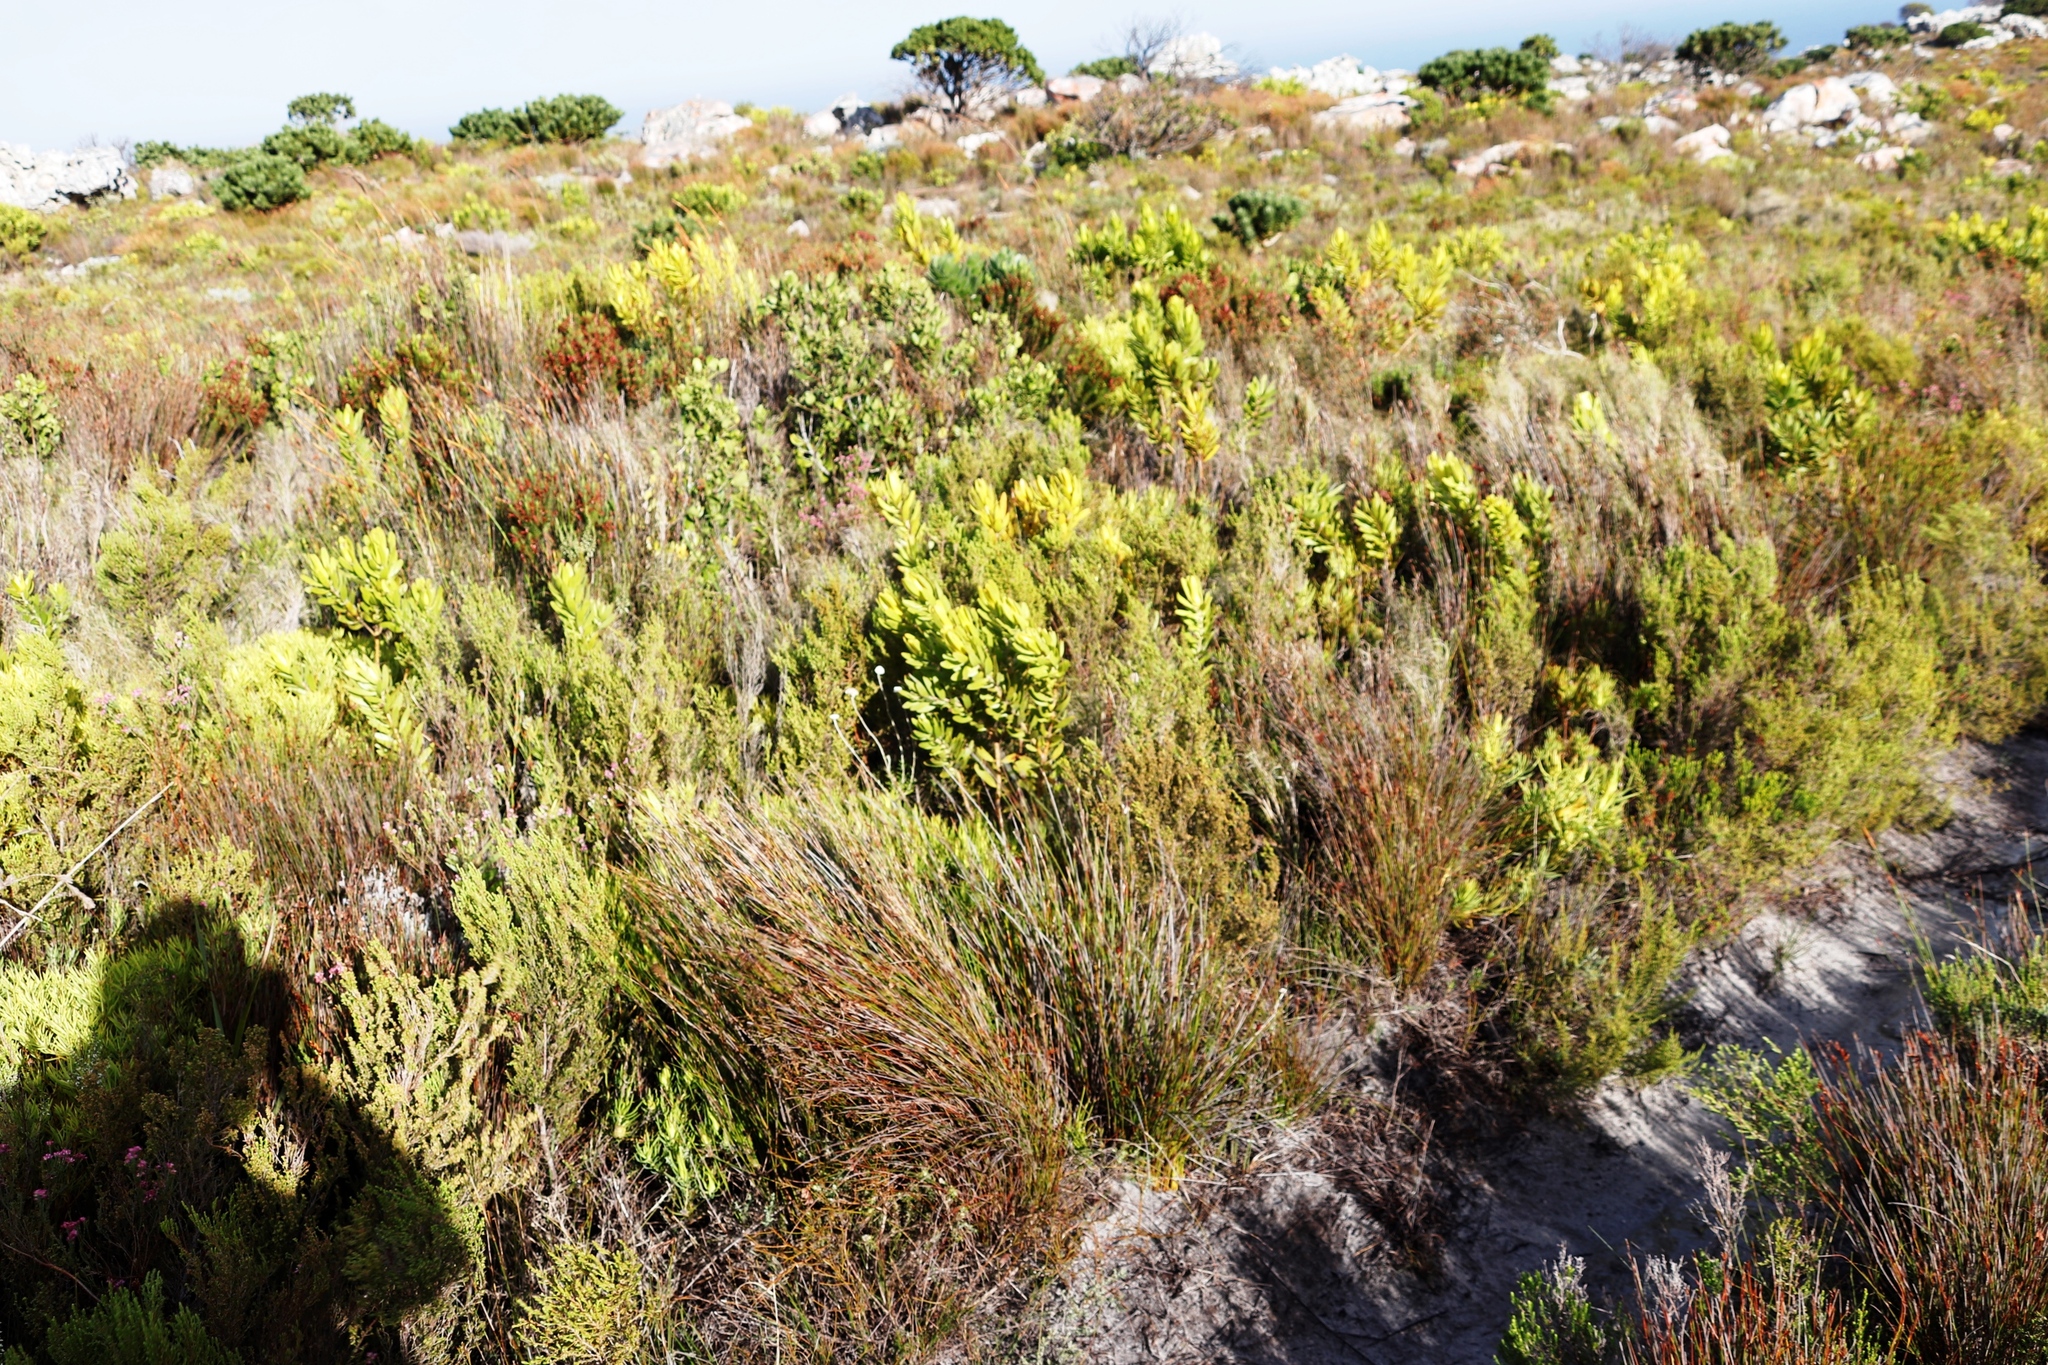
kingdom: Plantae
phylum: Tracheophyta
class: Magnoliopsida
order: Proteales
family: Proteaceae
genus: Leucadendron
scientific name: Leucadendron laureolum
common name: Golden sunshinebush
